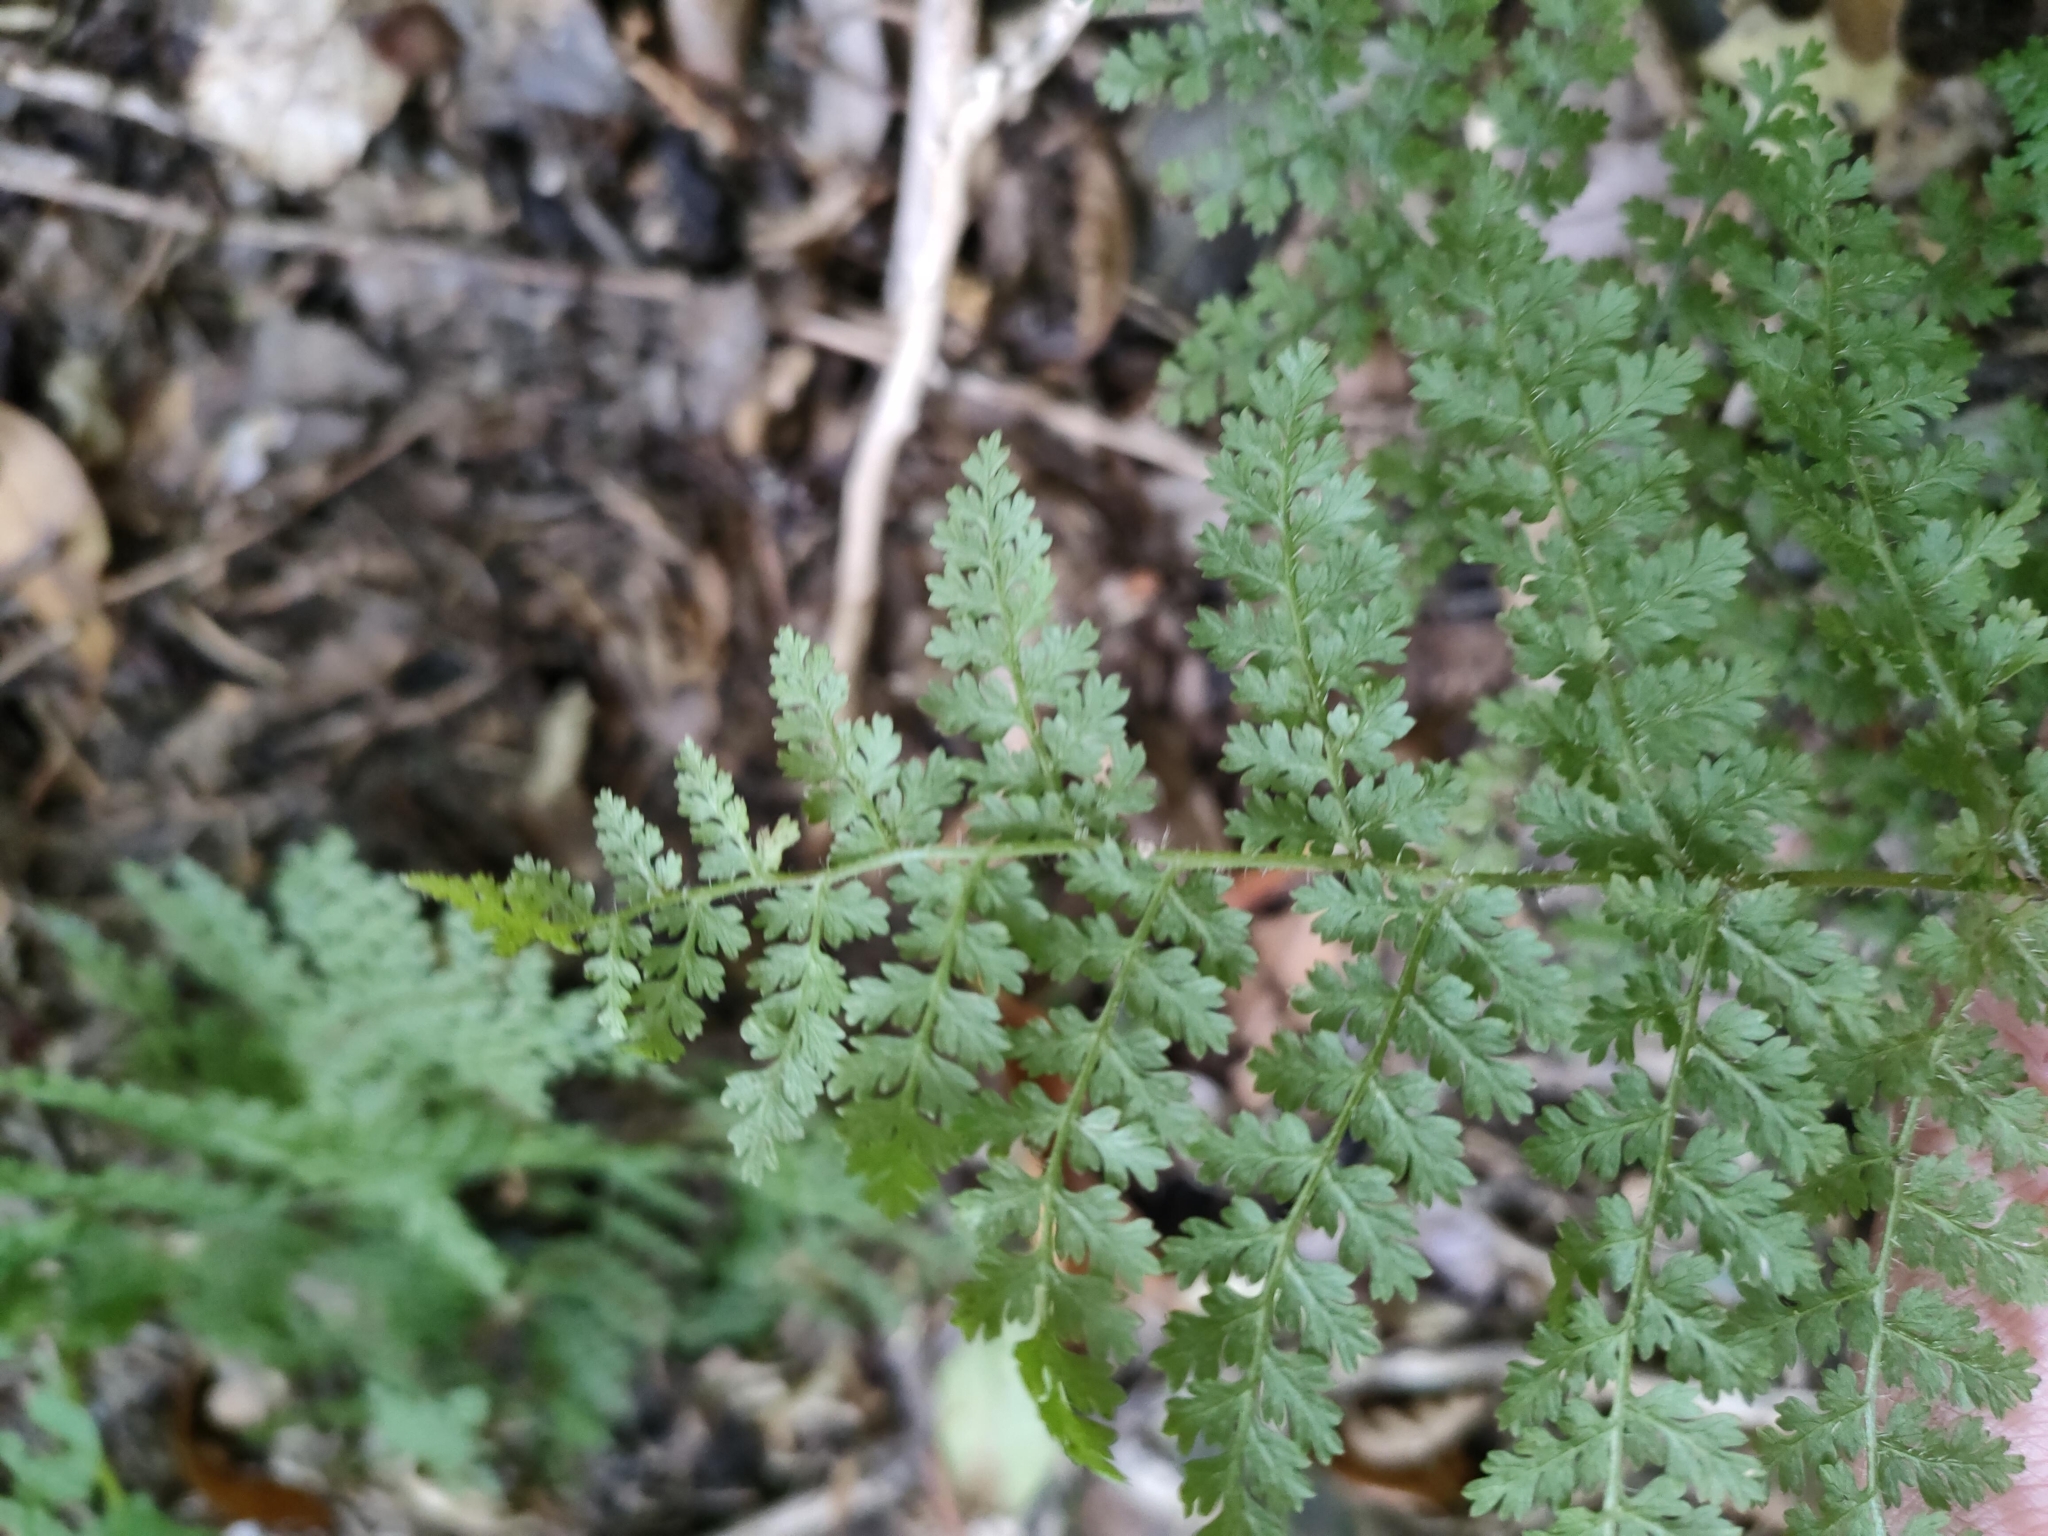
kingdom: Plantae
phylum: Tracheophyta
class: Polypodiopsida
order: Polypodiales
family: Dennstaedtiaceae
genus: Hypolepis
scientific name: Hypolepis millefolium
